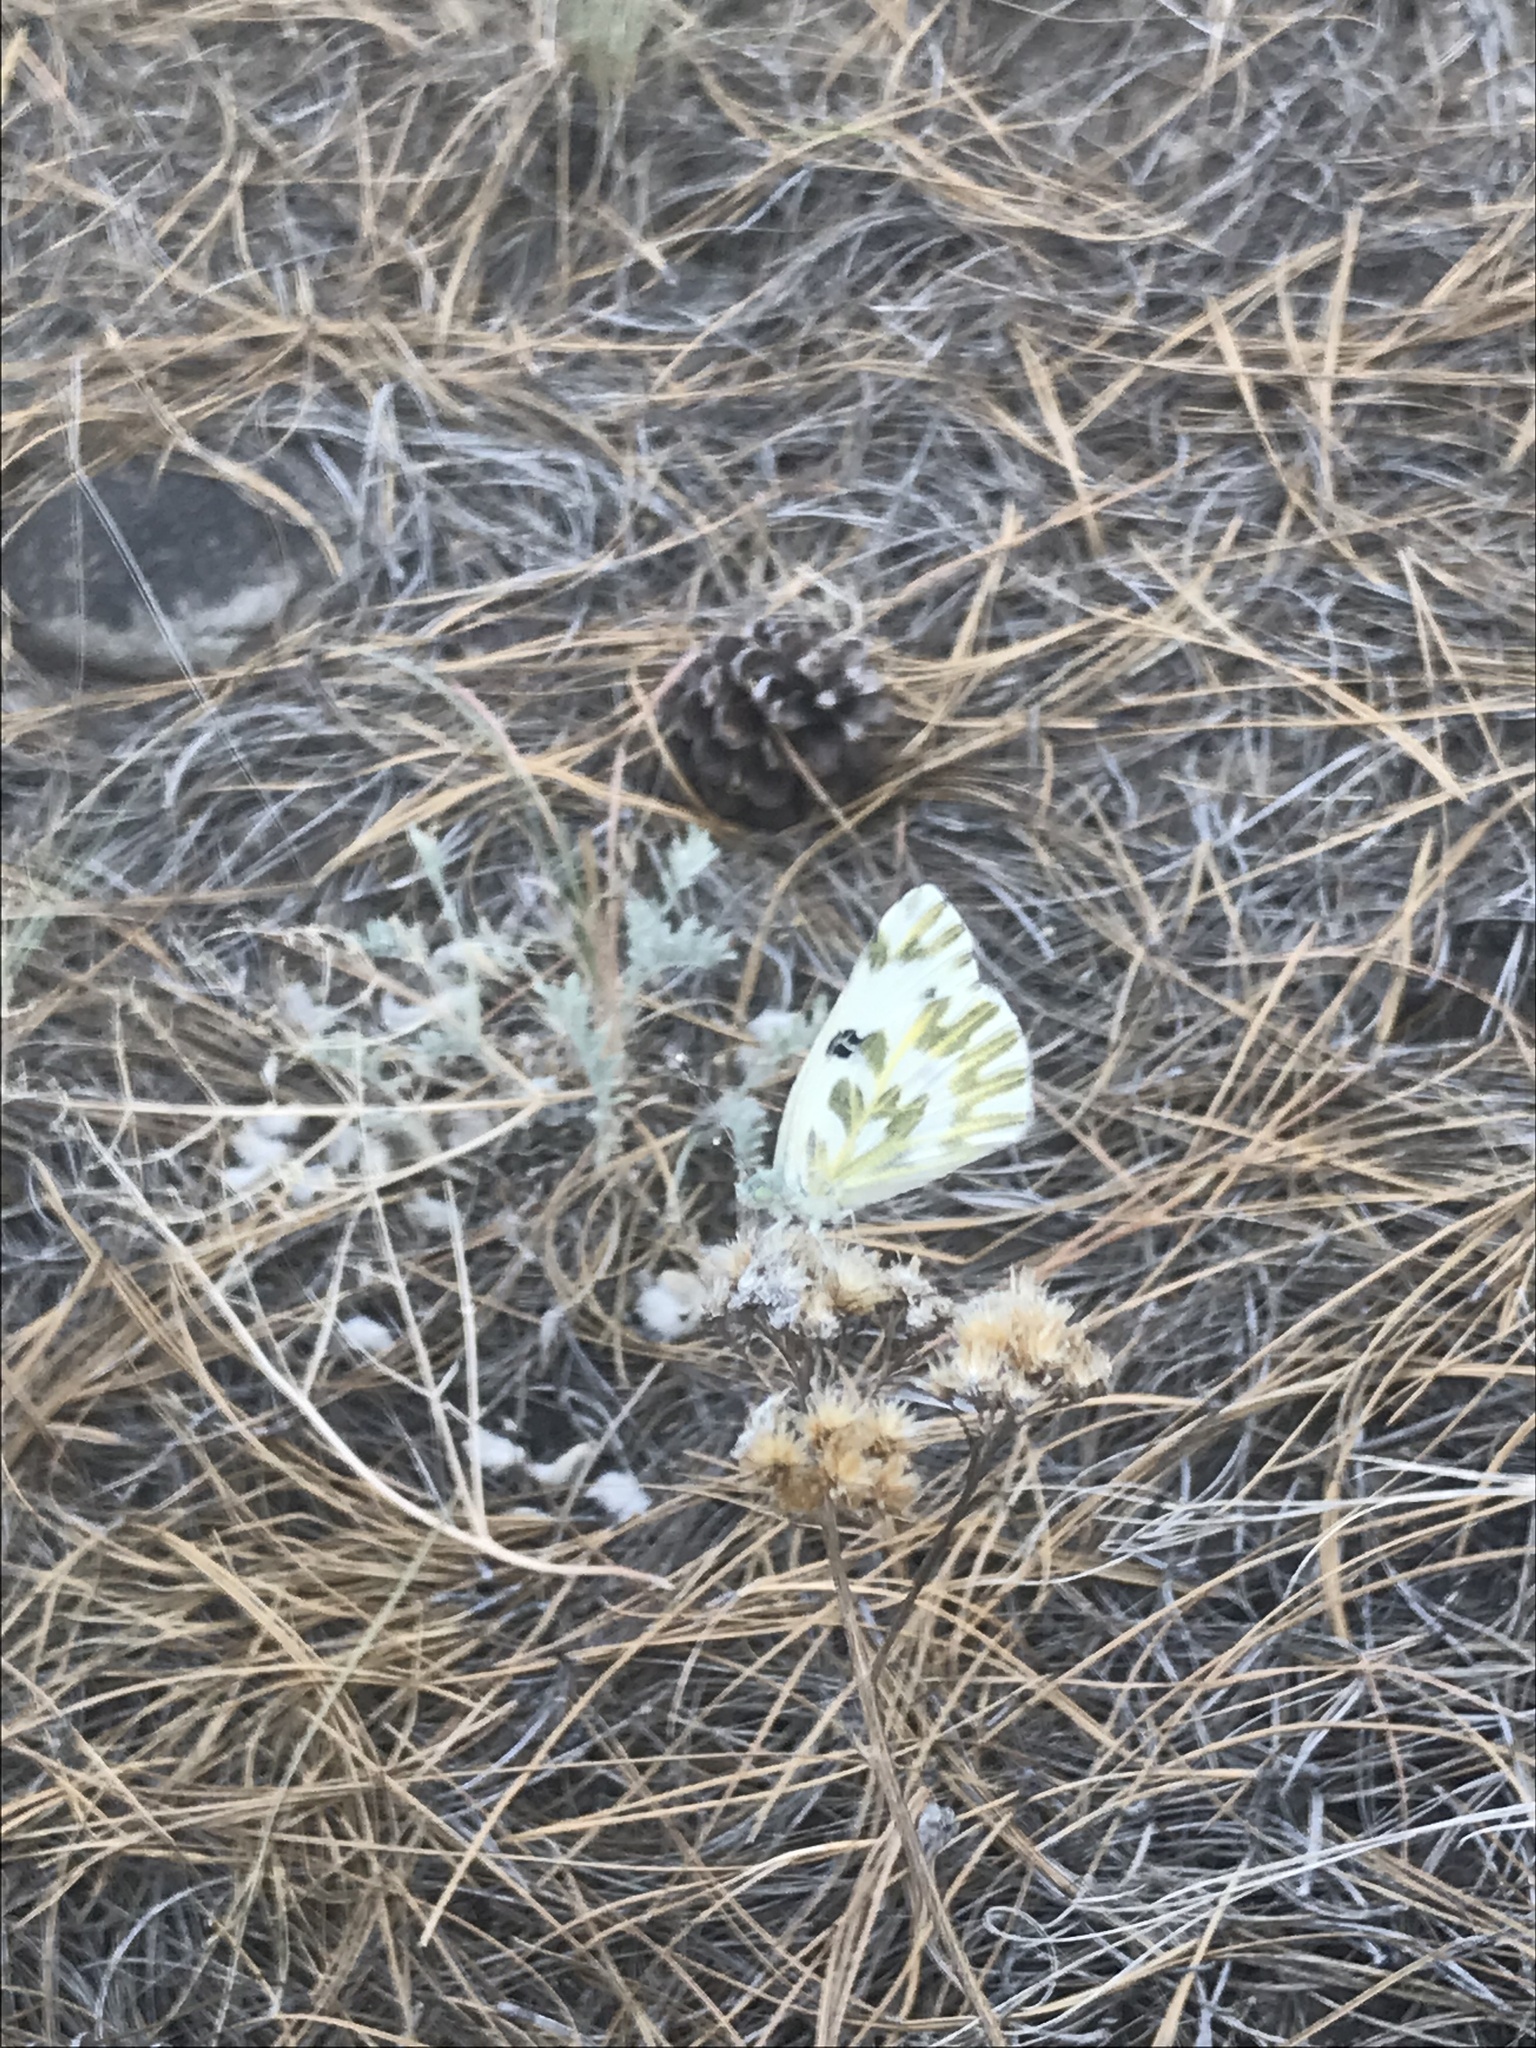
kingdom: Animalia
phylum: Arthropoda
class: Insecta
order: Lepidoptera
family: Pieridae
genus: Pontia
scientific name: Pontia beckerii
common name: Becker's white
